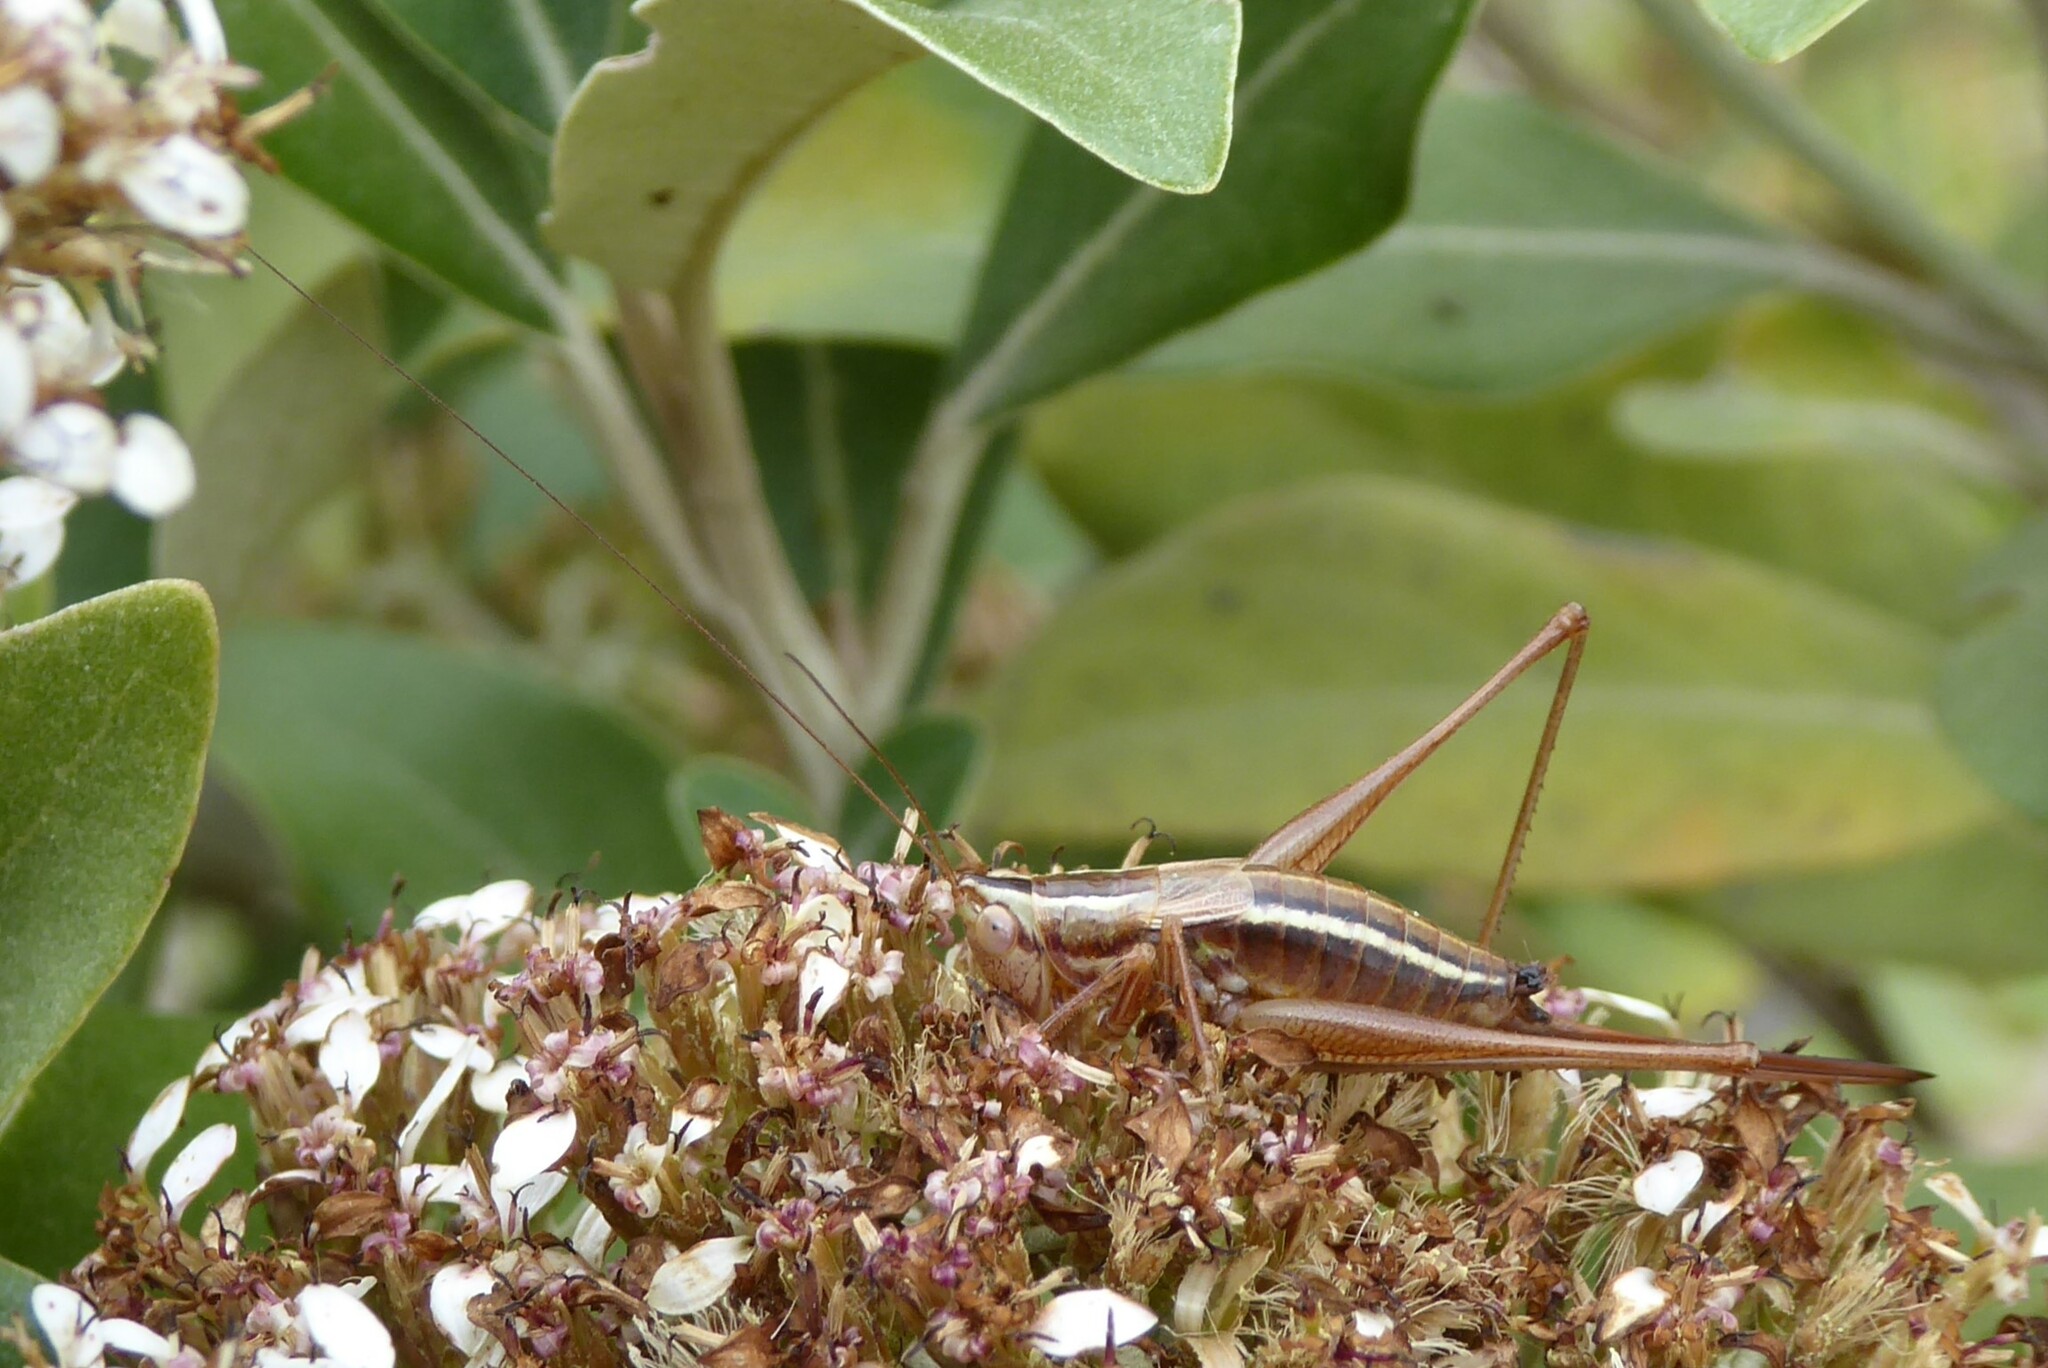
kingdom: Animalia
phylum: Arthropoda
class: Insecta
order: Orthoptera
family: Tettigoniidae
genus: Conocephalus
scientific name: Conocephalus bilineatus
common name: Small meadow katydid
